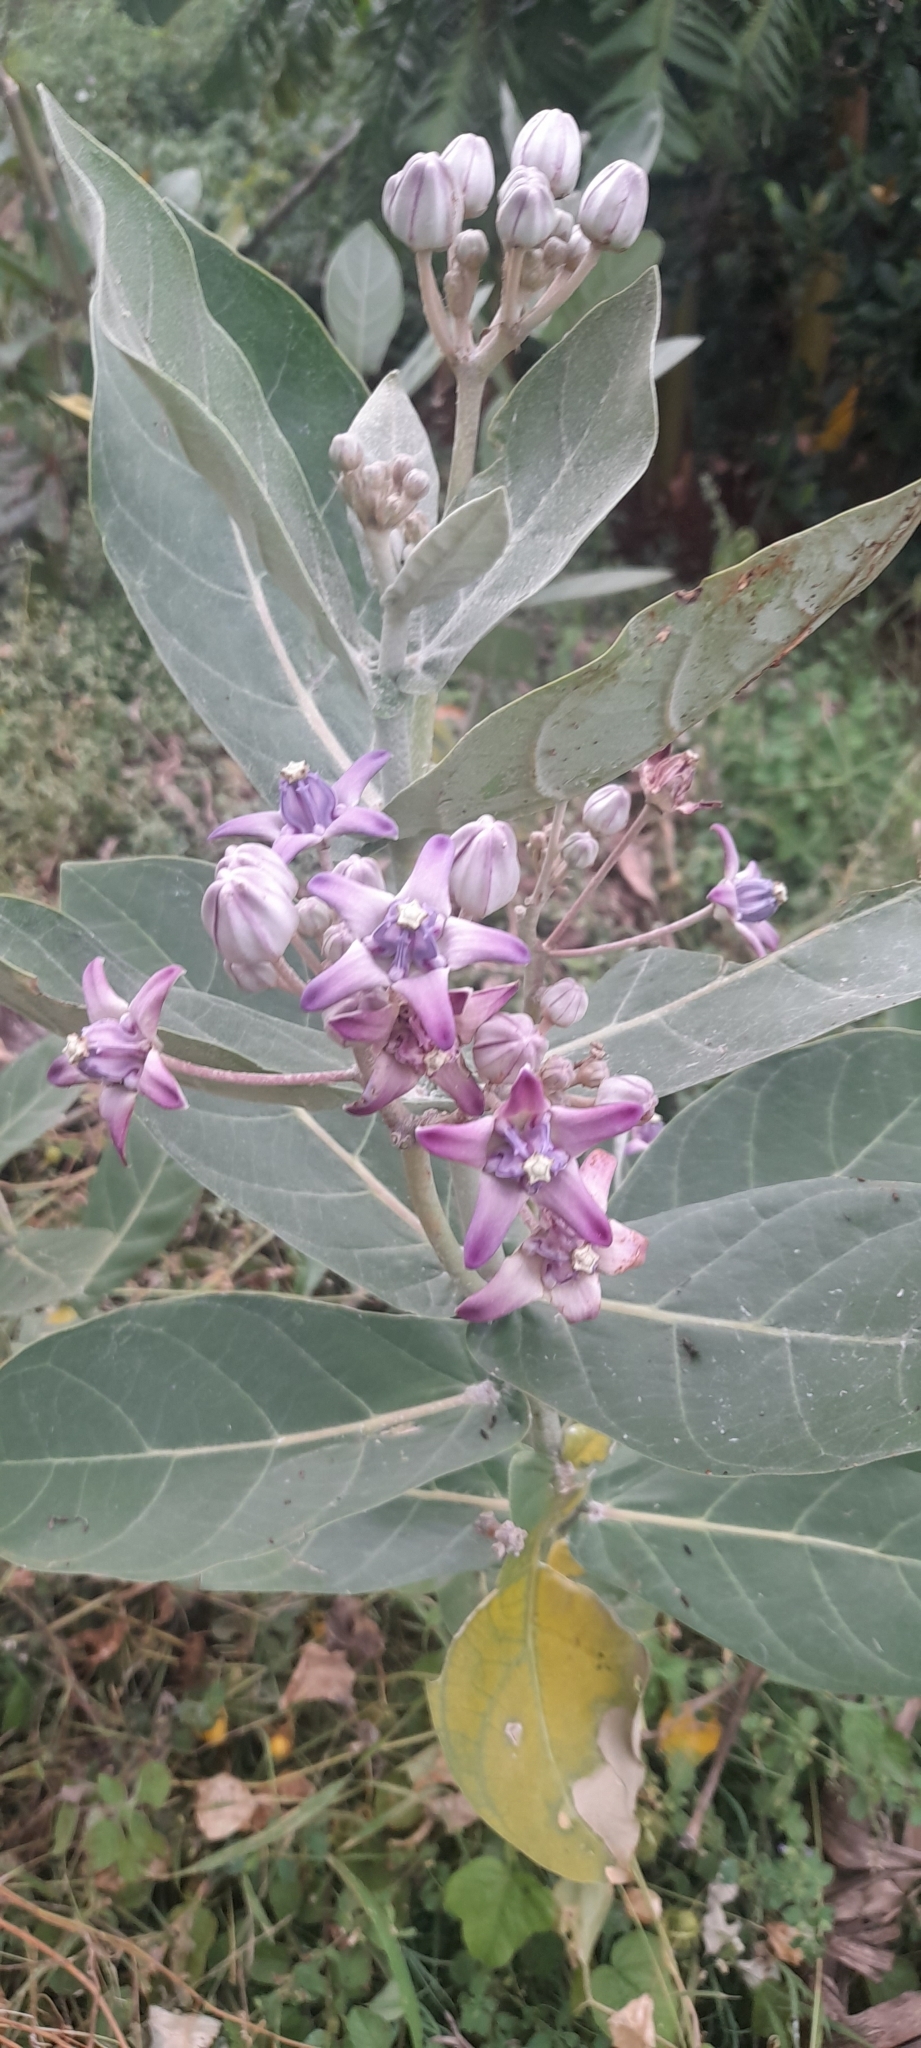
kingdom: Plantae
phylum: Tracheophyta
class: Magnoliopsida
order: Gentianales
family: Apocynaceae
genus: Calotropis
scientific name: Calotropis gigantea
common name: Crown flower
